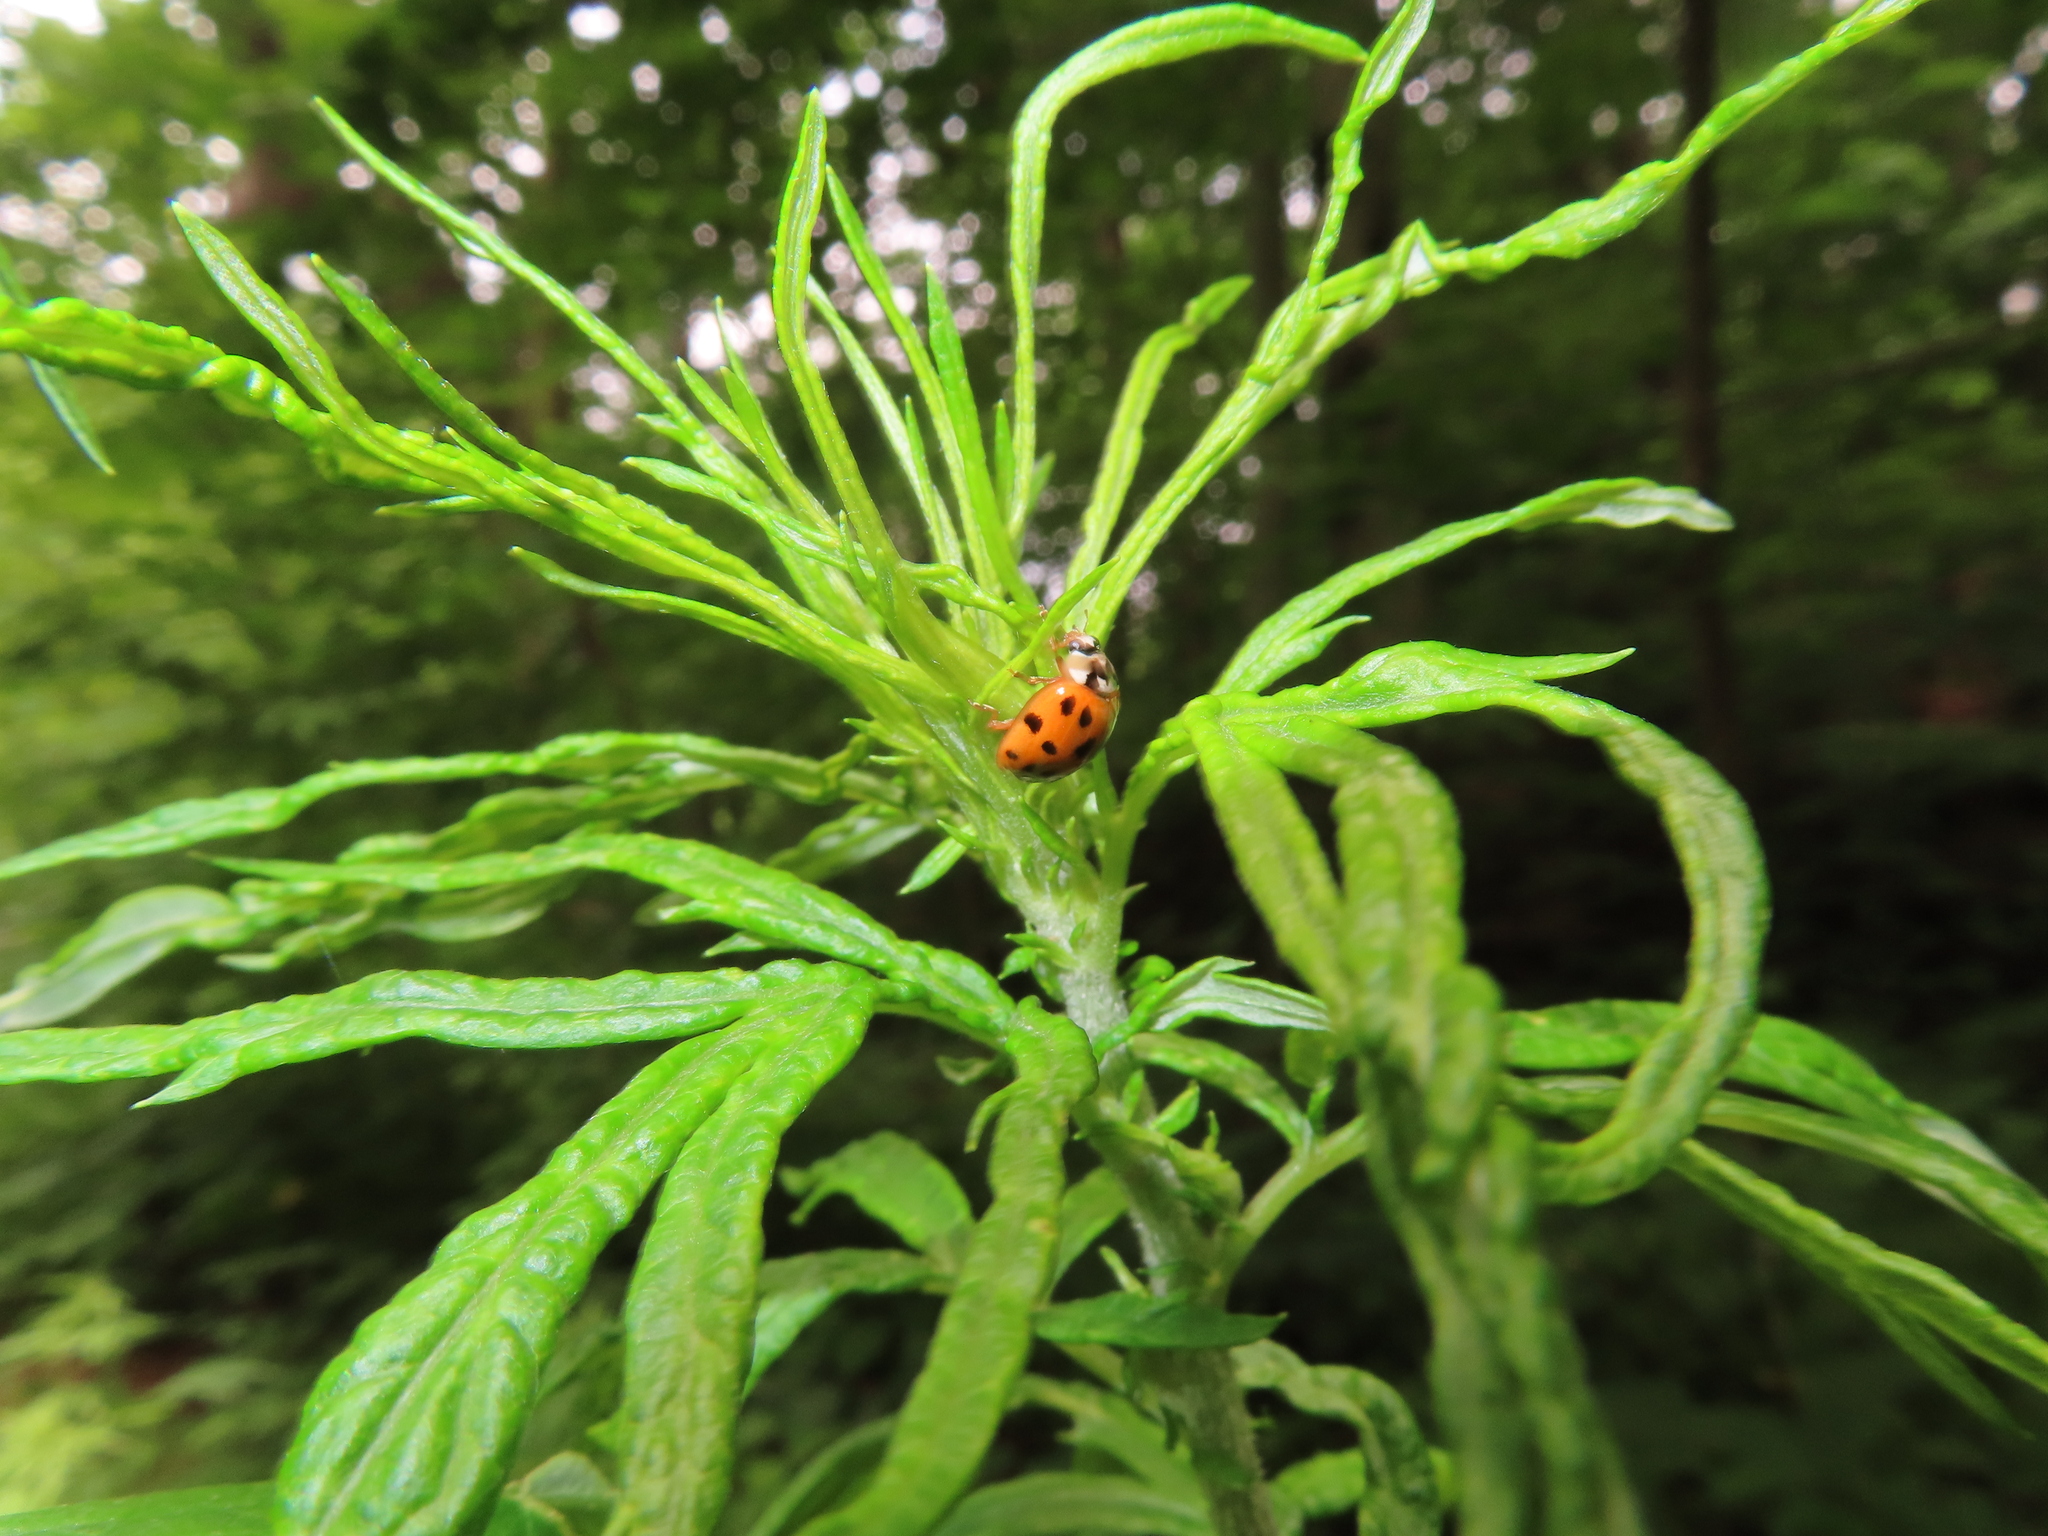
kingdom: Animalia
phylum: Arthropoda
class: Insecta
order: Coleoptera
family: Coccinellidae
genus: Harmonia
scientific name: Harmonia axyridis
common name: Harlequin ladybird
